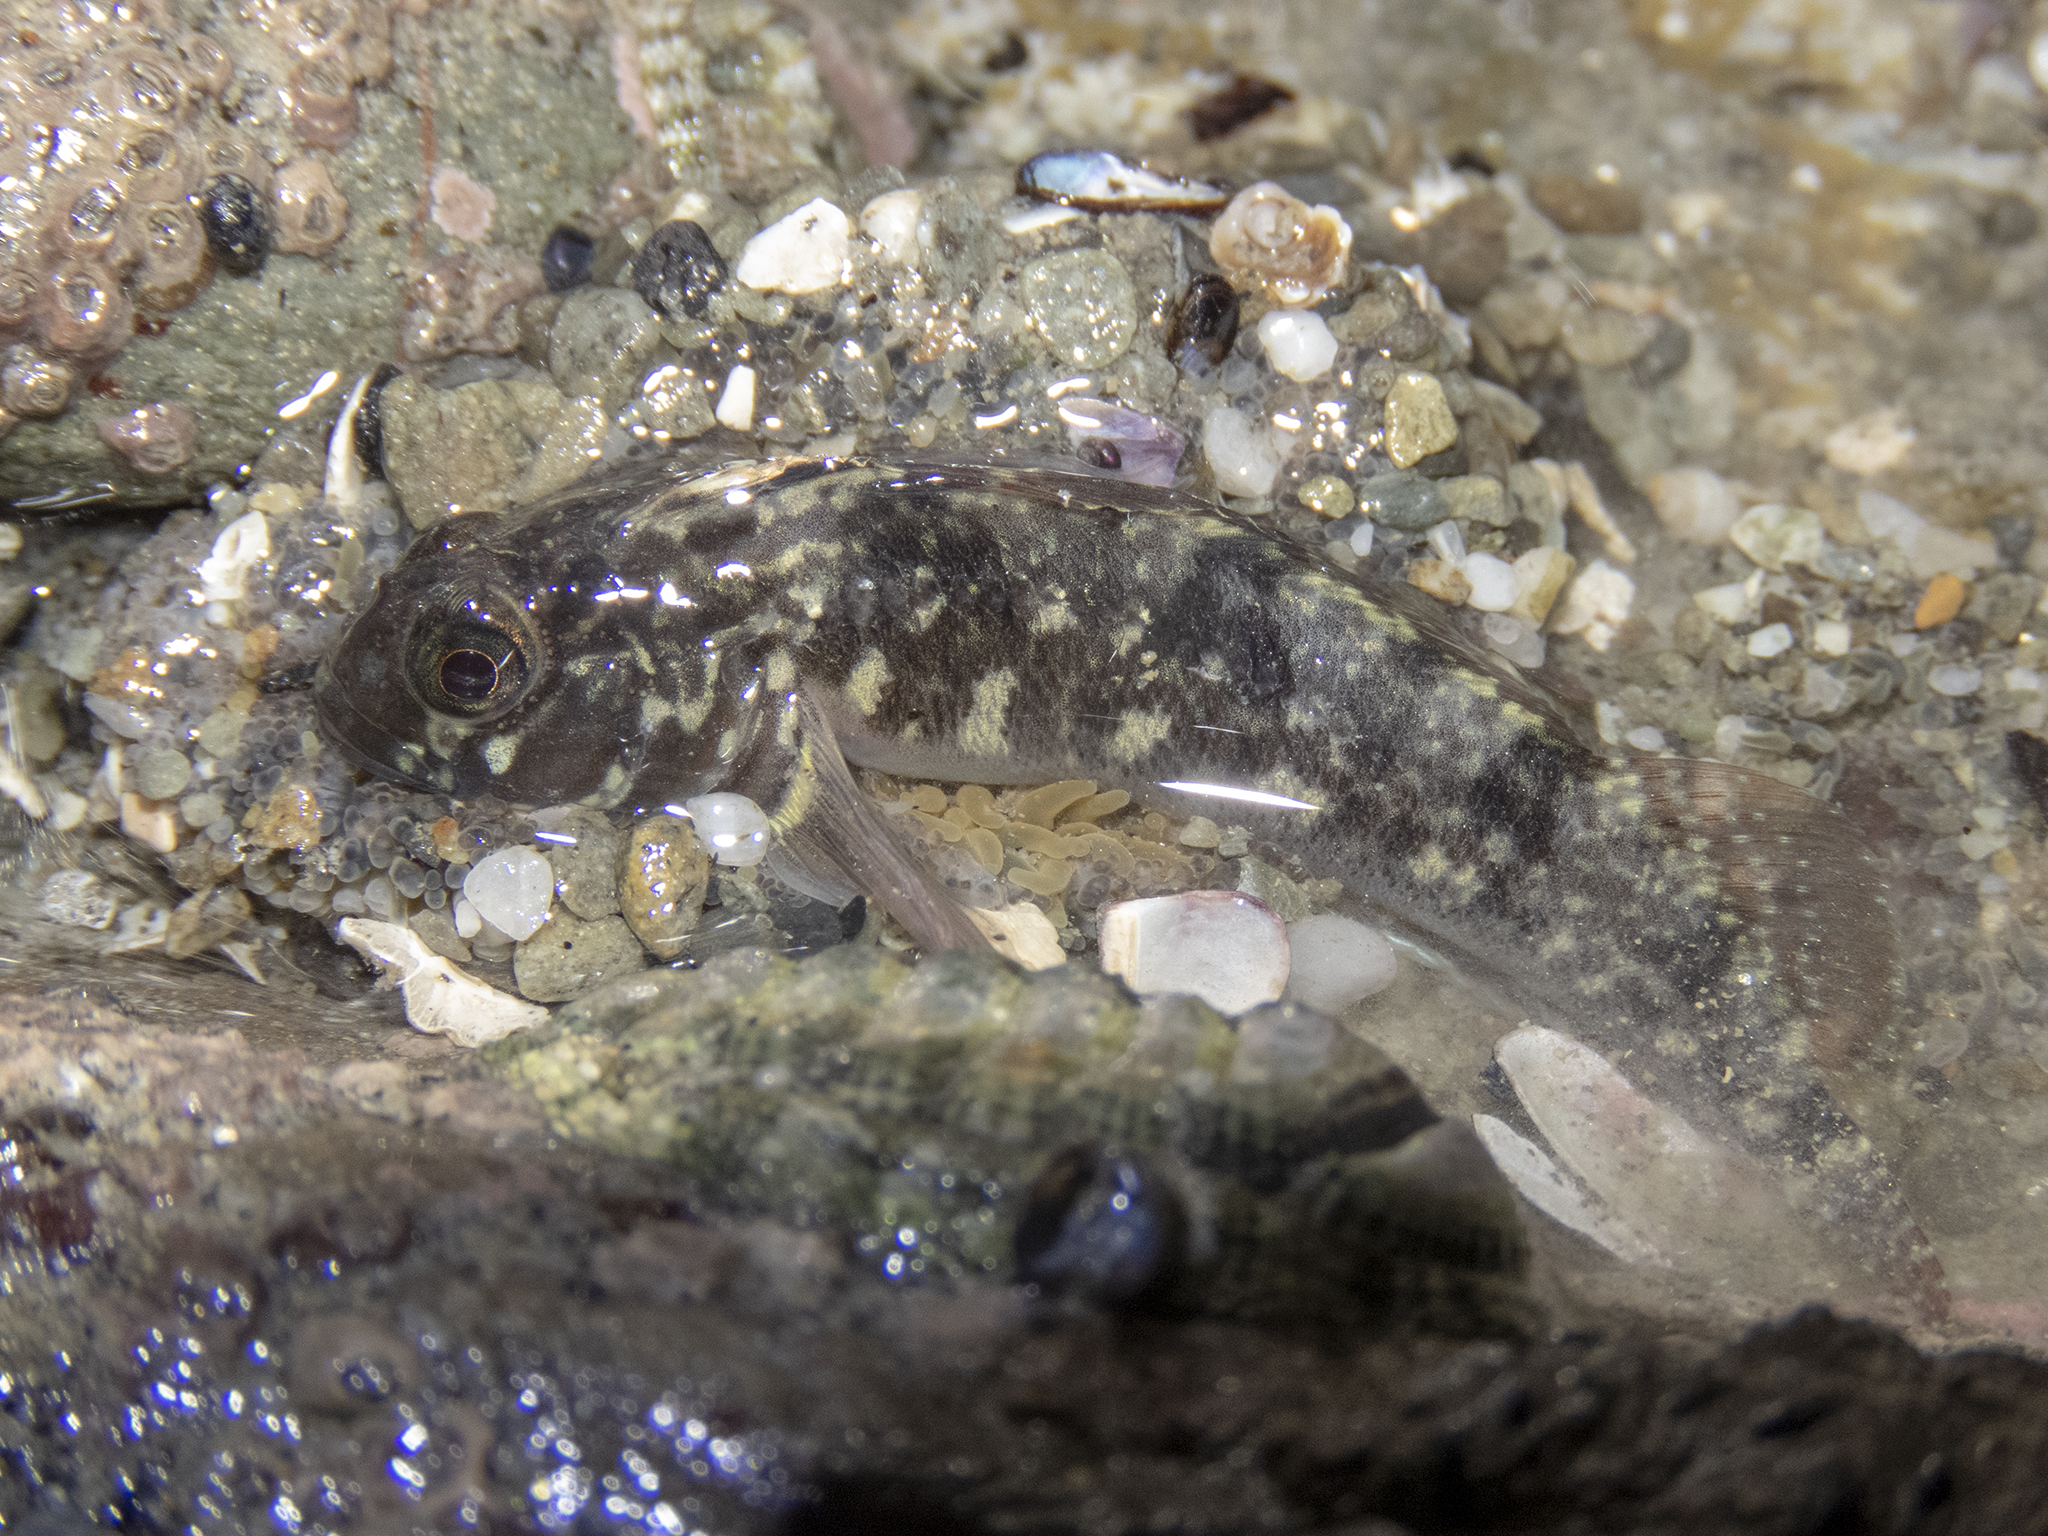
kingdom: Animalia
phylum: Chordata
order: Perciformes
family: Tripterygiidae
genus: Forsterygion
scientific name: Forsterygion gymnotum
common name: Multifid-tentacled robust triplefin
